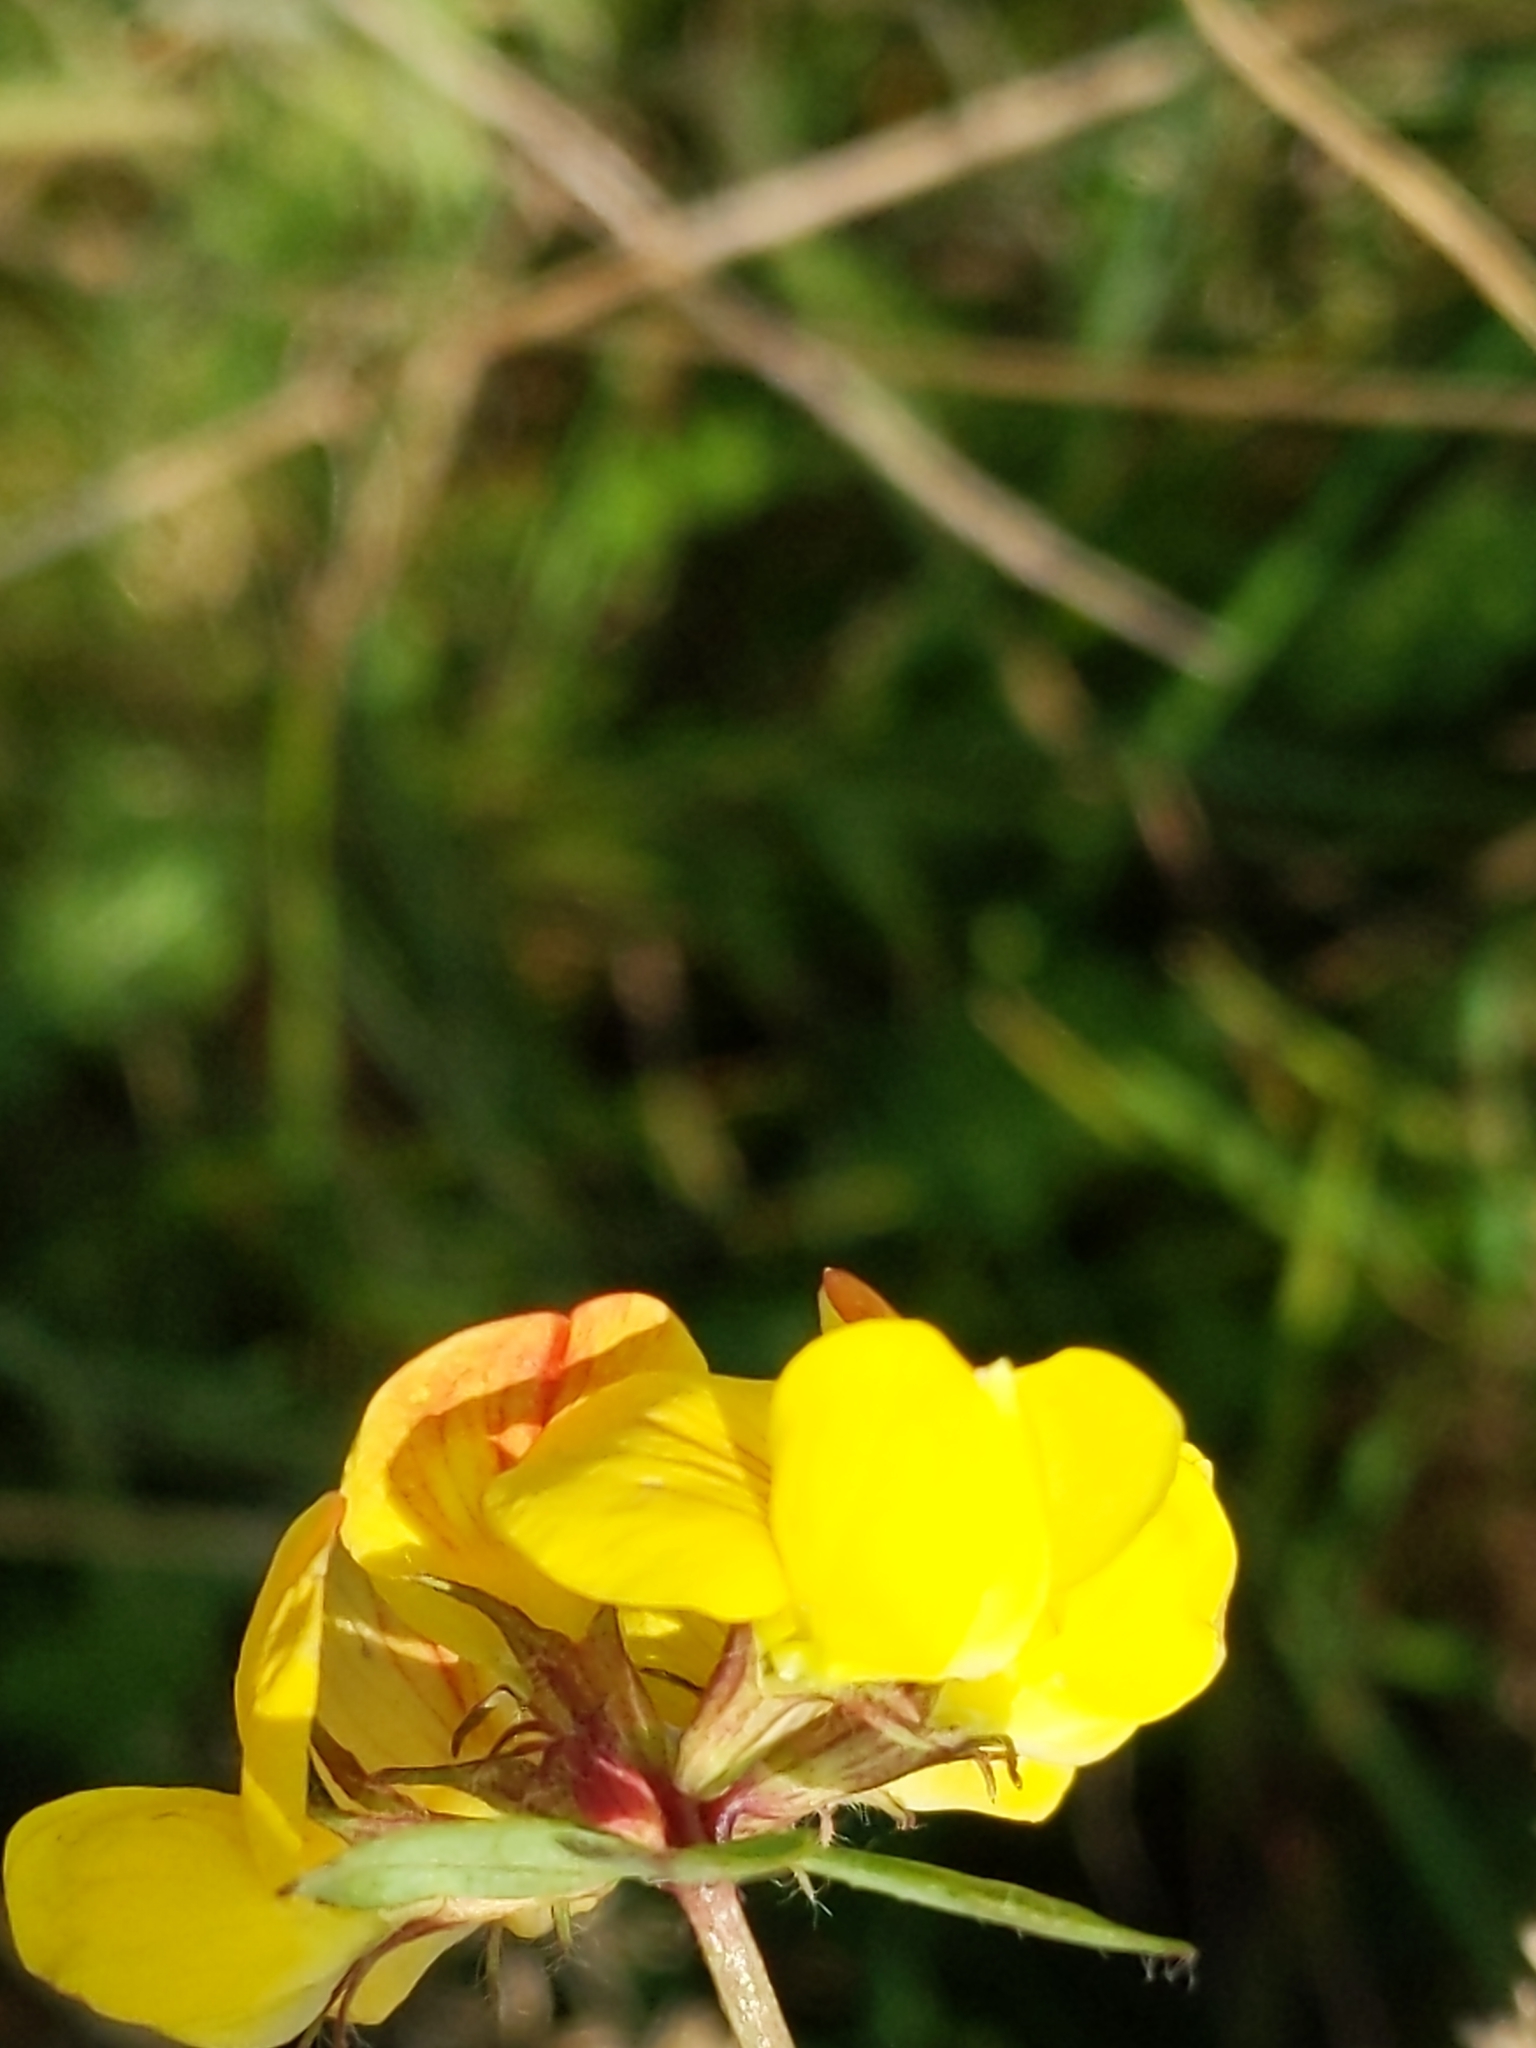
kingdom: Plantae
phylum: Tracheophyta
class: Magnoliopsida
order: Fabales
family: Fabaceae
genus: Lotus
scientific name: Lotus corniculatus
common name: Common bird's-foot-trefoil
